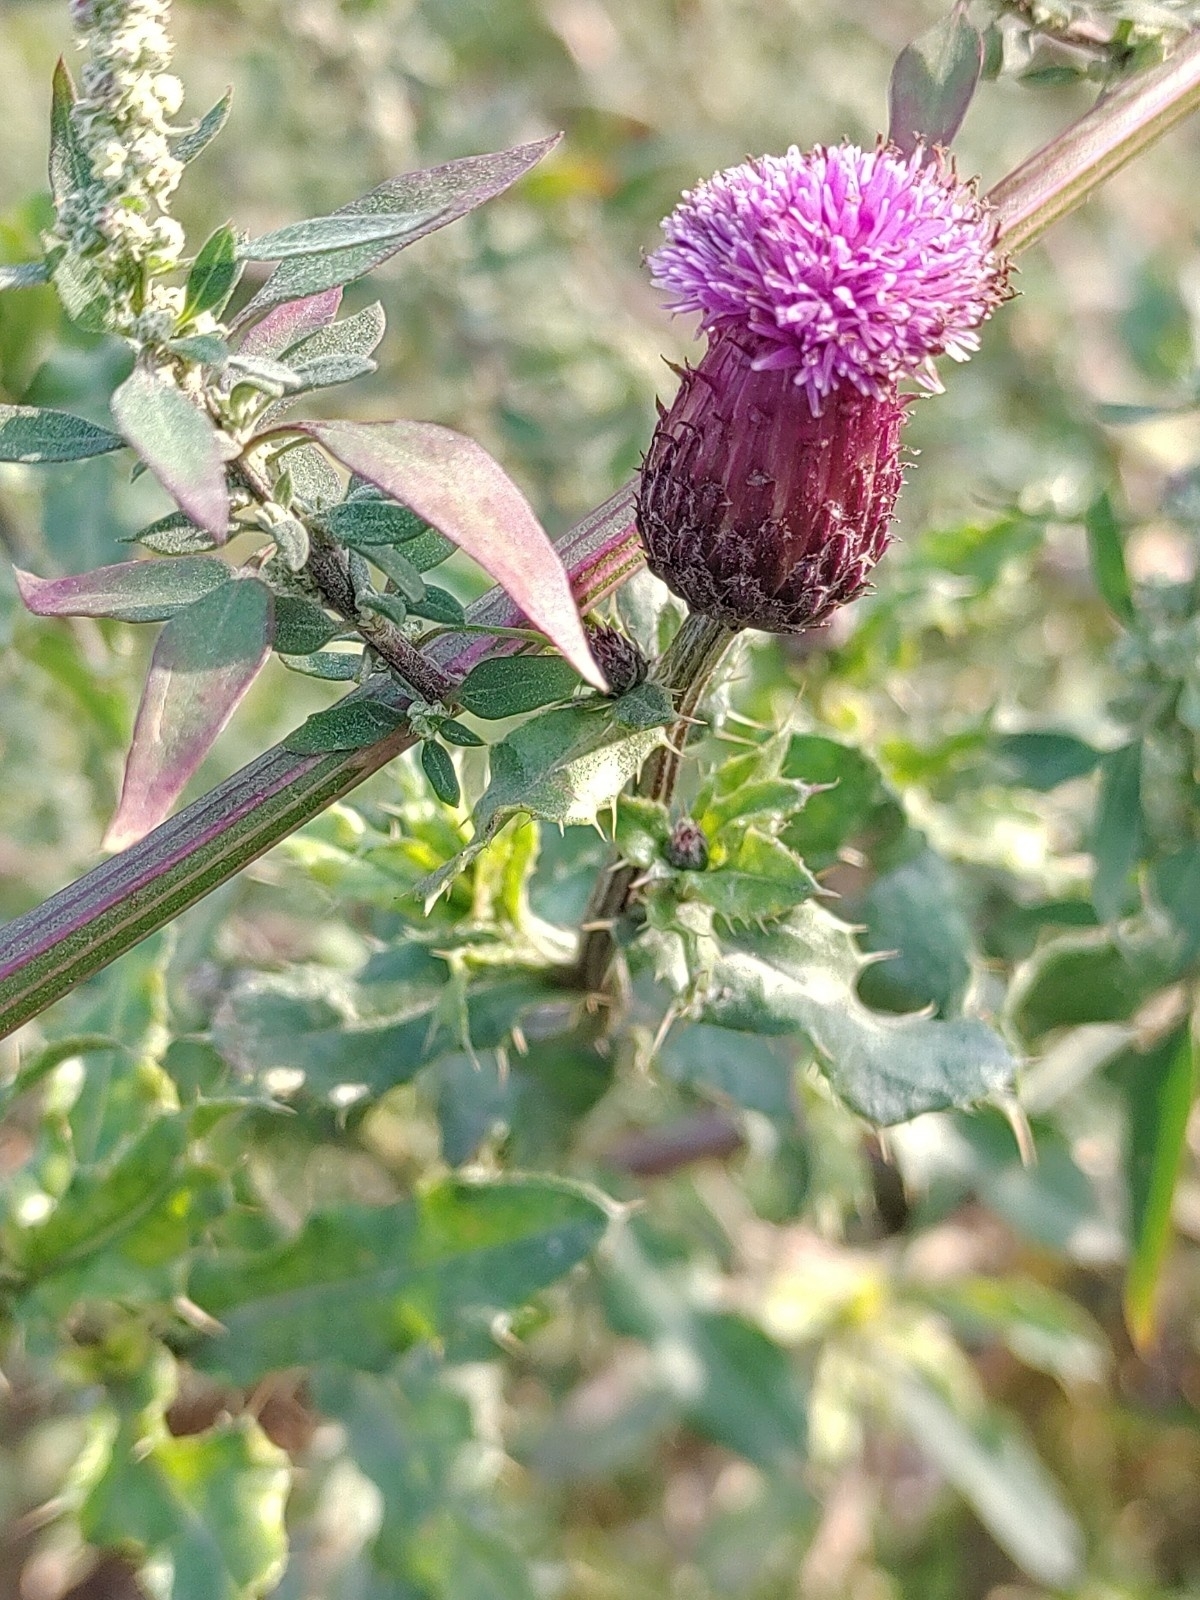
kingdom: Plantae
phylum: Tracheophyta
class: Magnoliopsida
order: Asterales
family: Asteraceae
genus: Cirsium
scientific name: Cirsium arvense
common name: Creeping thistle
